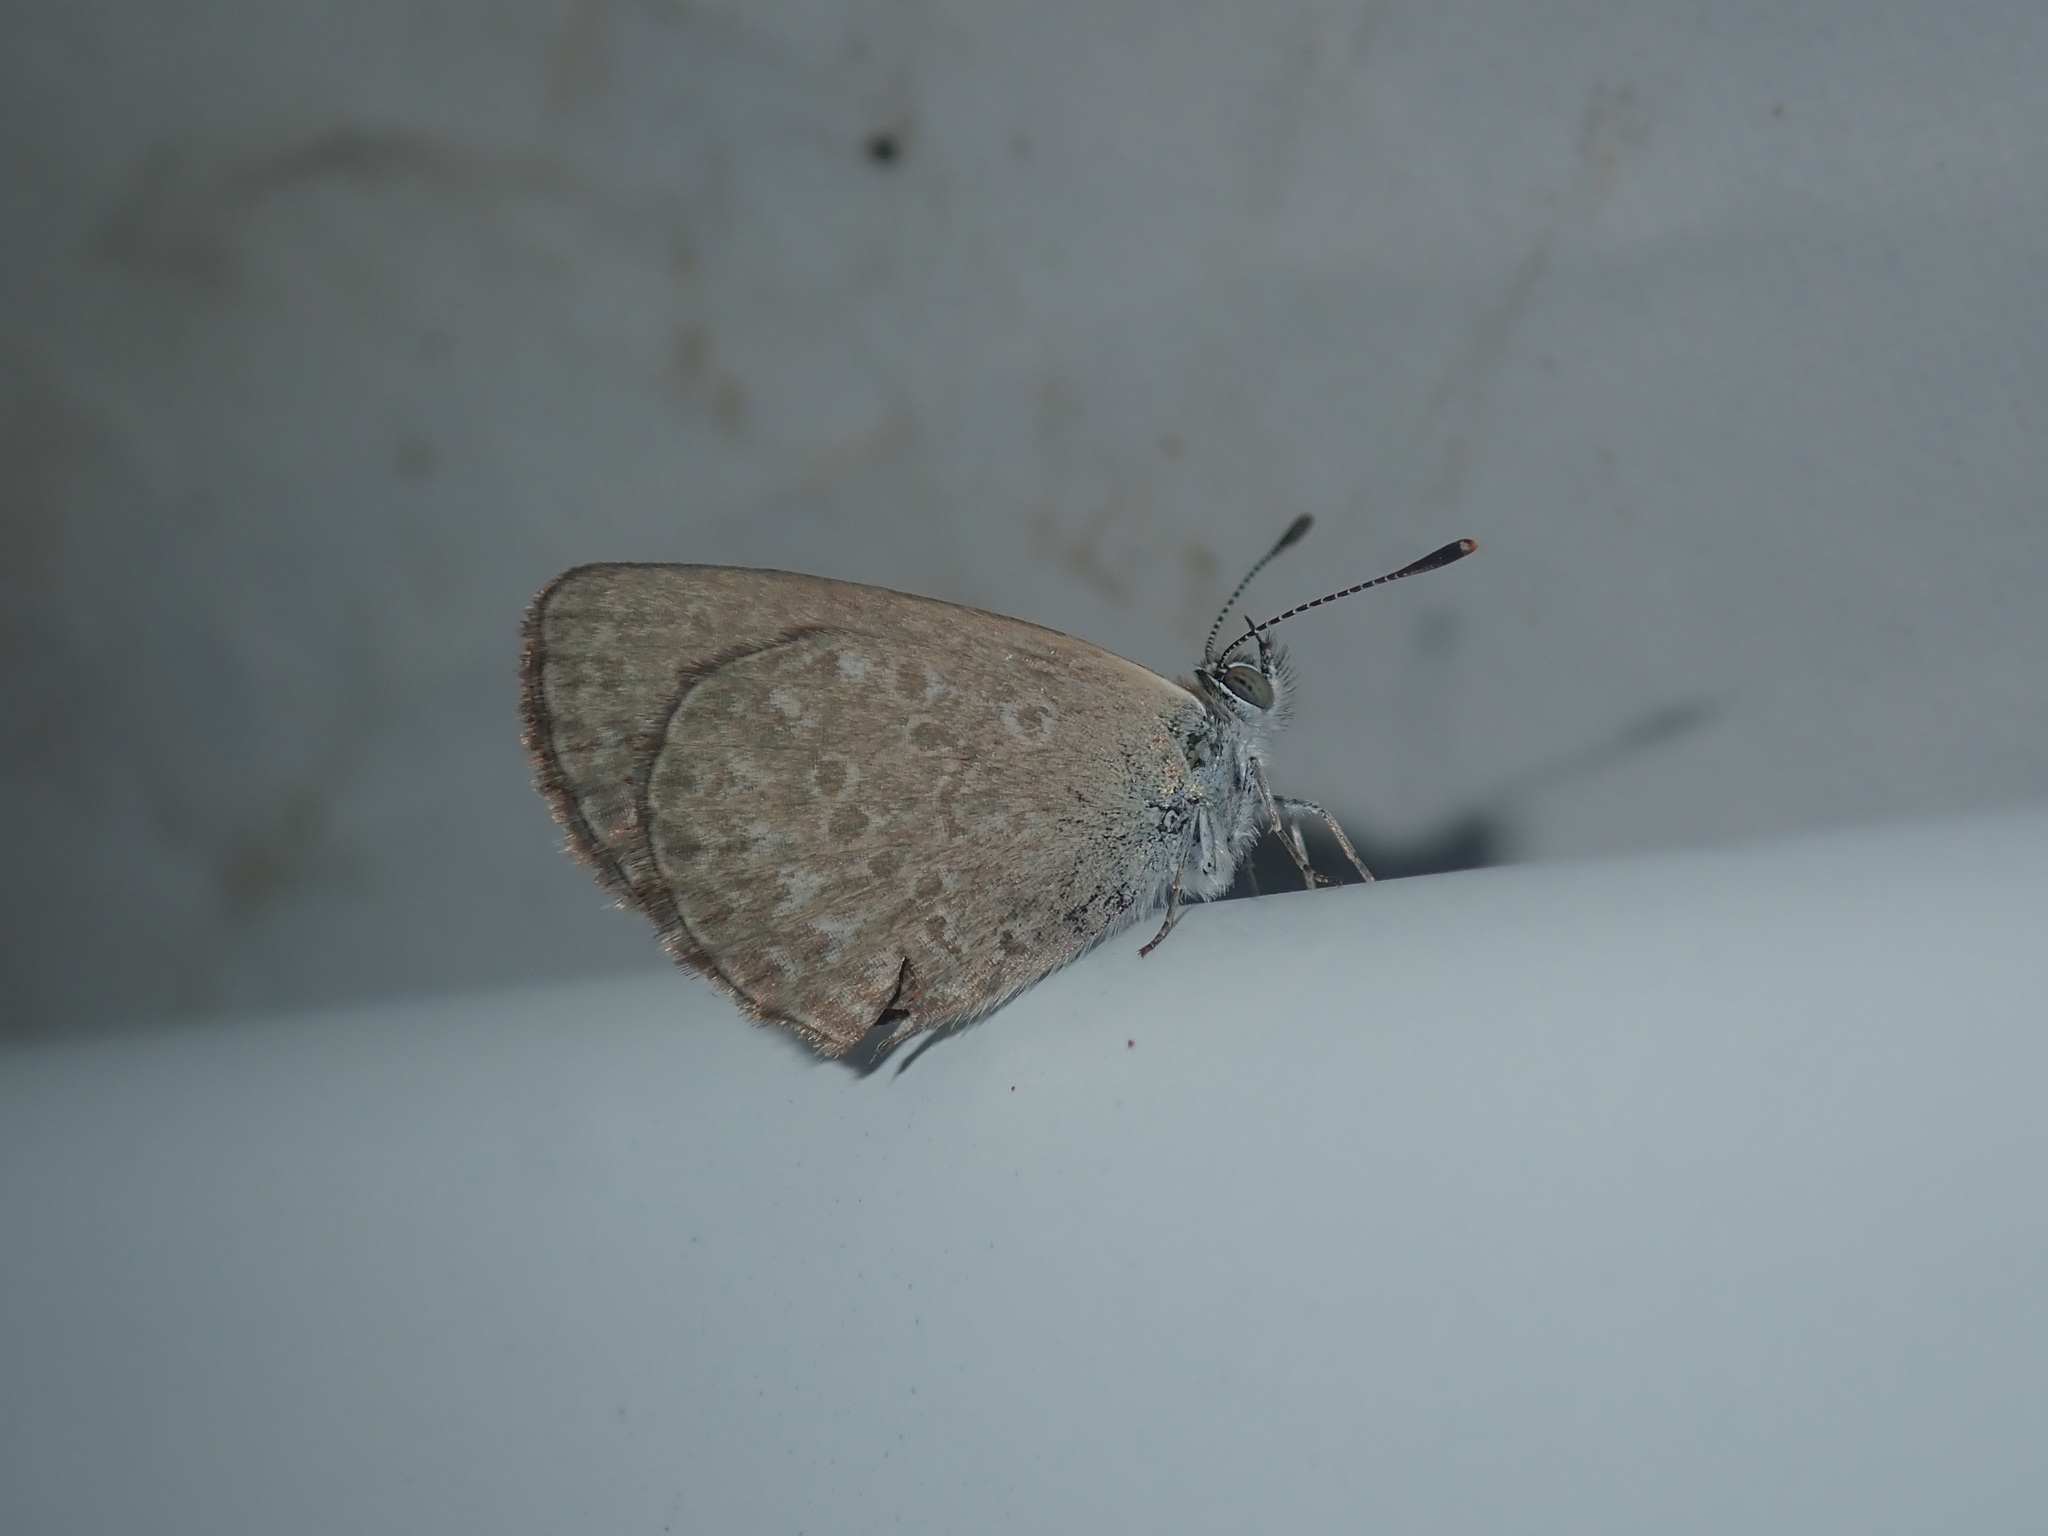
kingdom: Animalia
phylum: Arthropoda
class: Insecta
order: Lepidoptera
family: Lycaenidae
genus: Zizina
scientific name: Zizina otis
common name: Lesser grass blue
